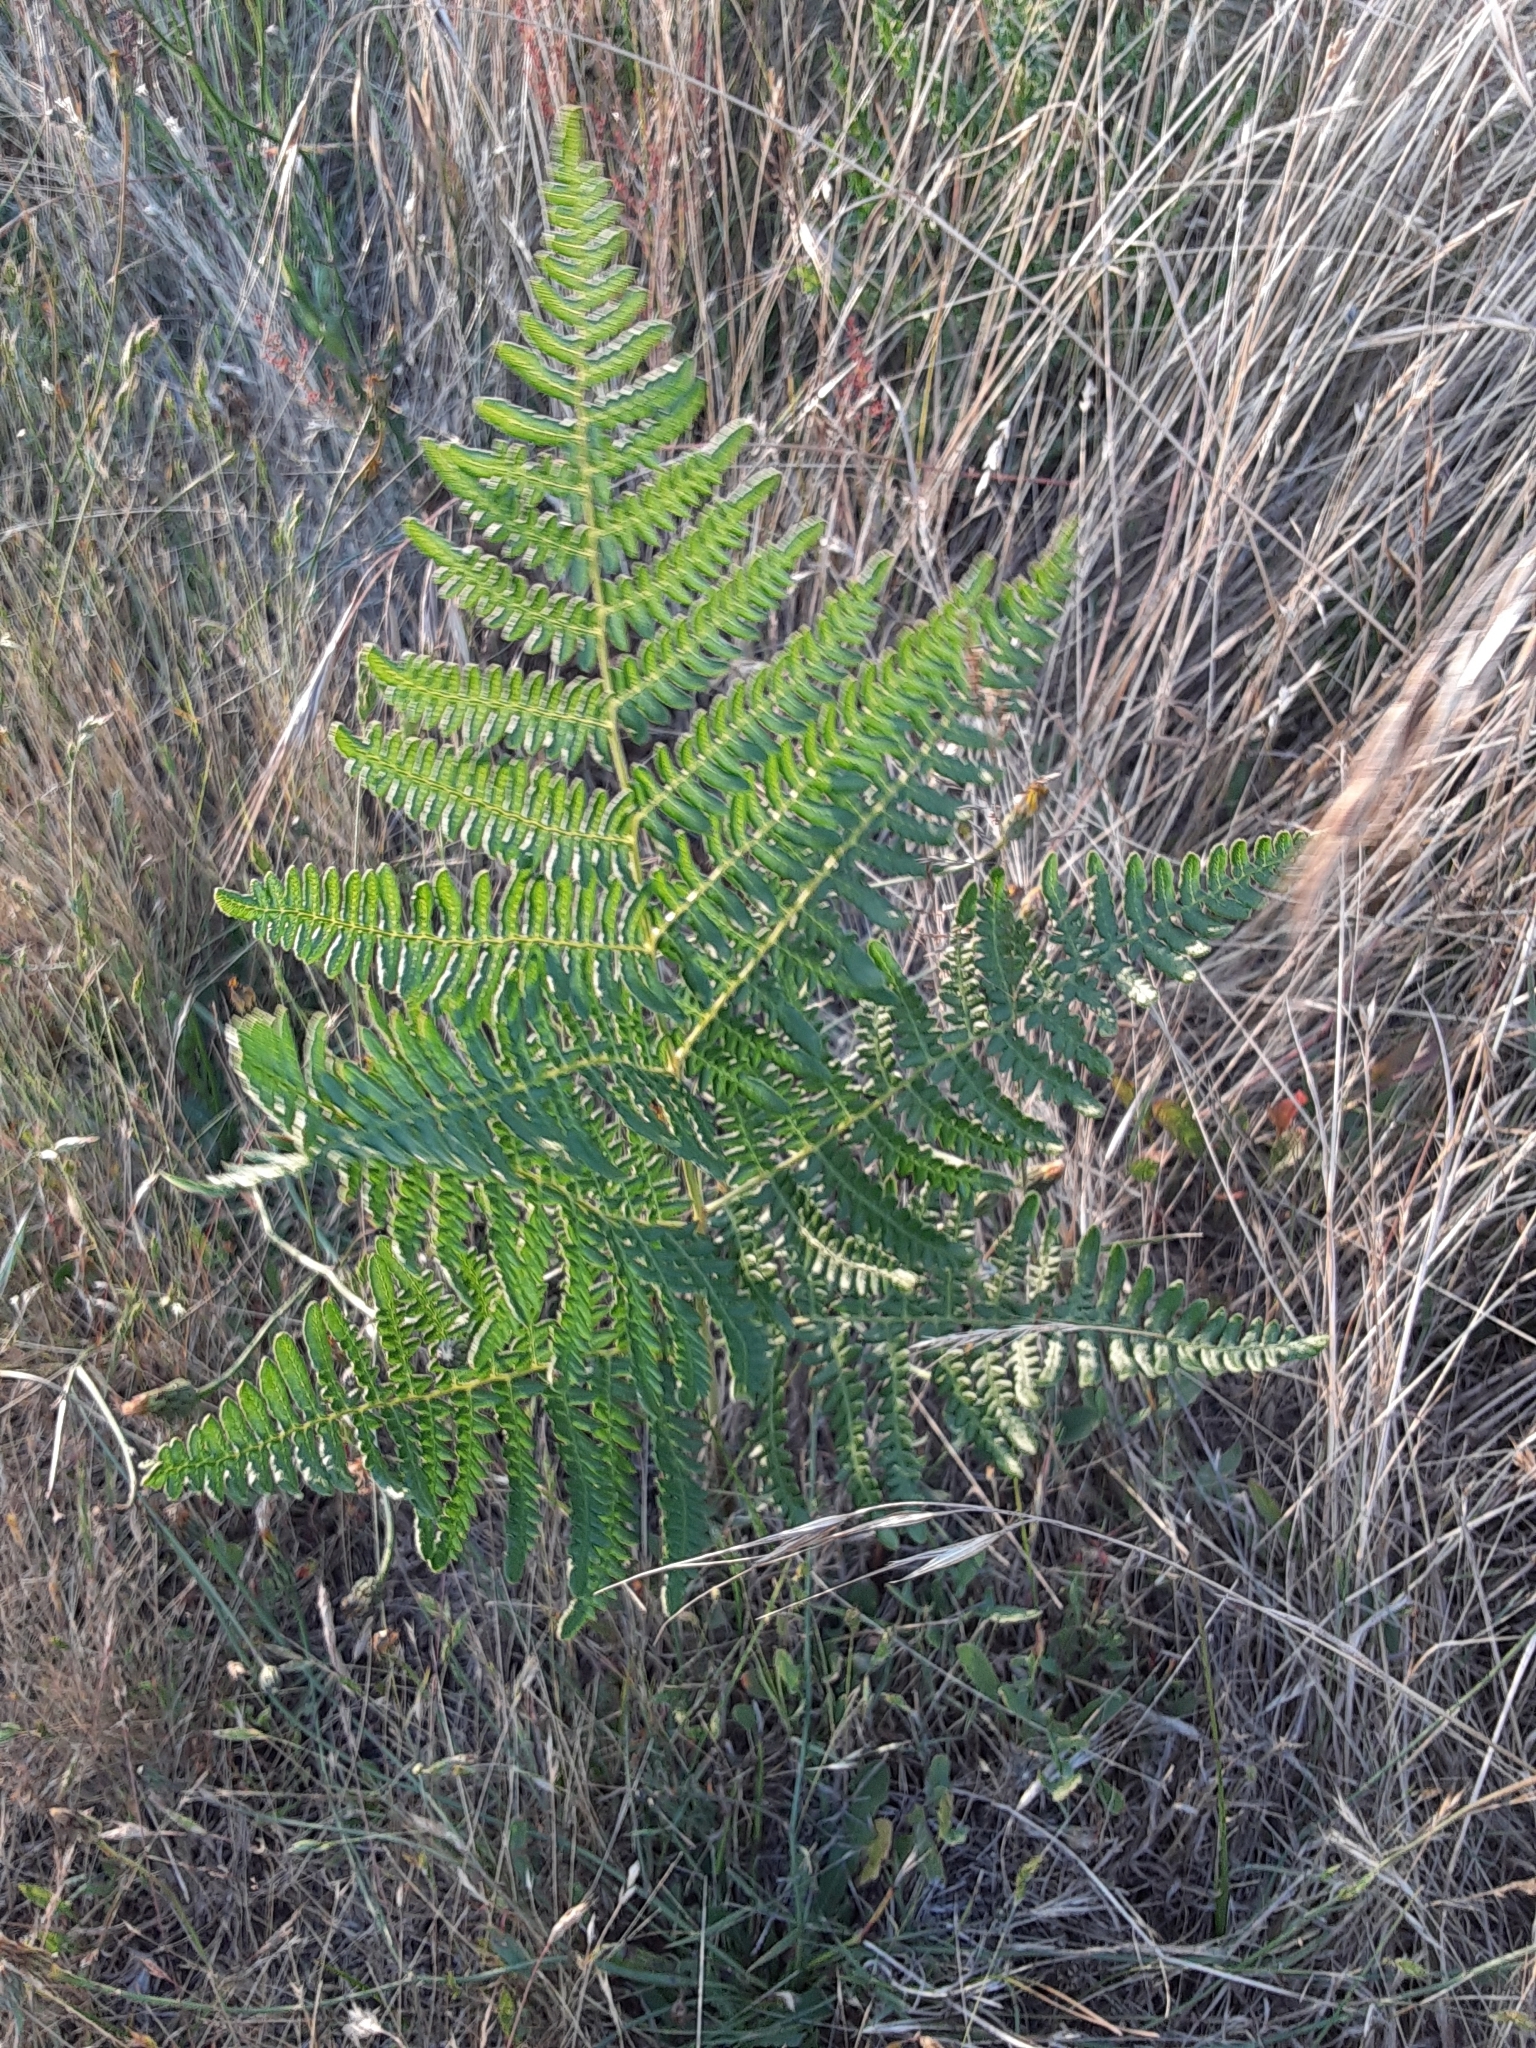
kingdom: Plantae
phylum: Tracheophyta
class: Polypodiopsida
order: Polypodiales
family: Dennstaedtiaceae
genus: Pteridium
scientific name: Pteridium aquilinum
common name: Bracken
